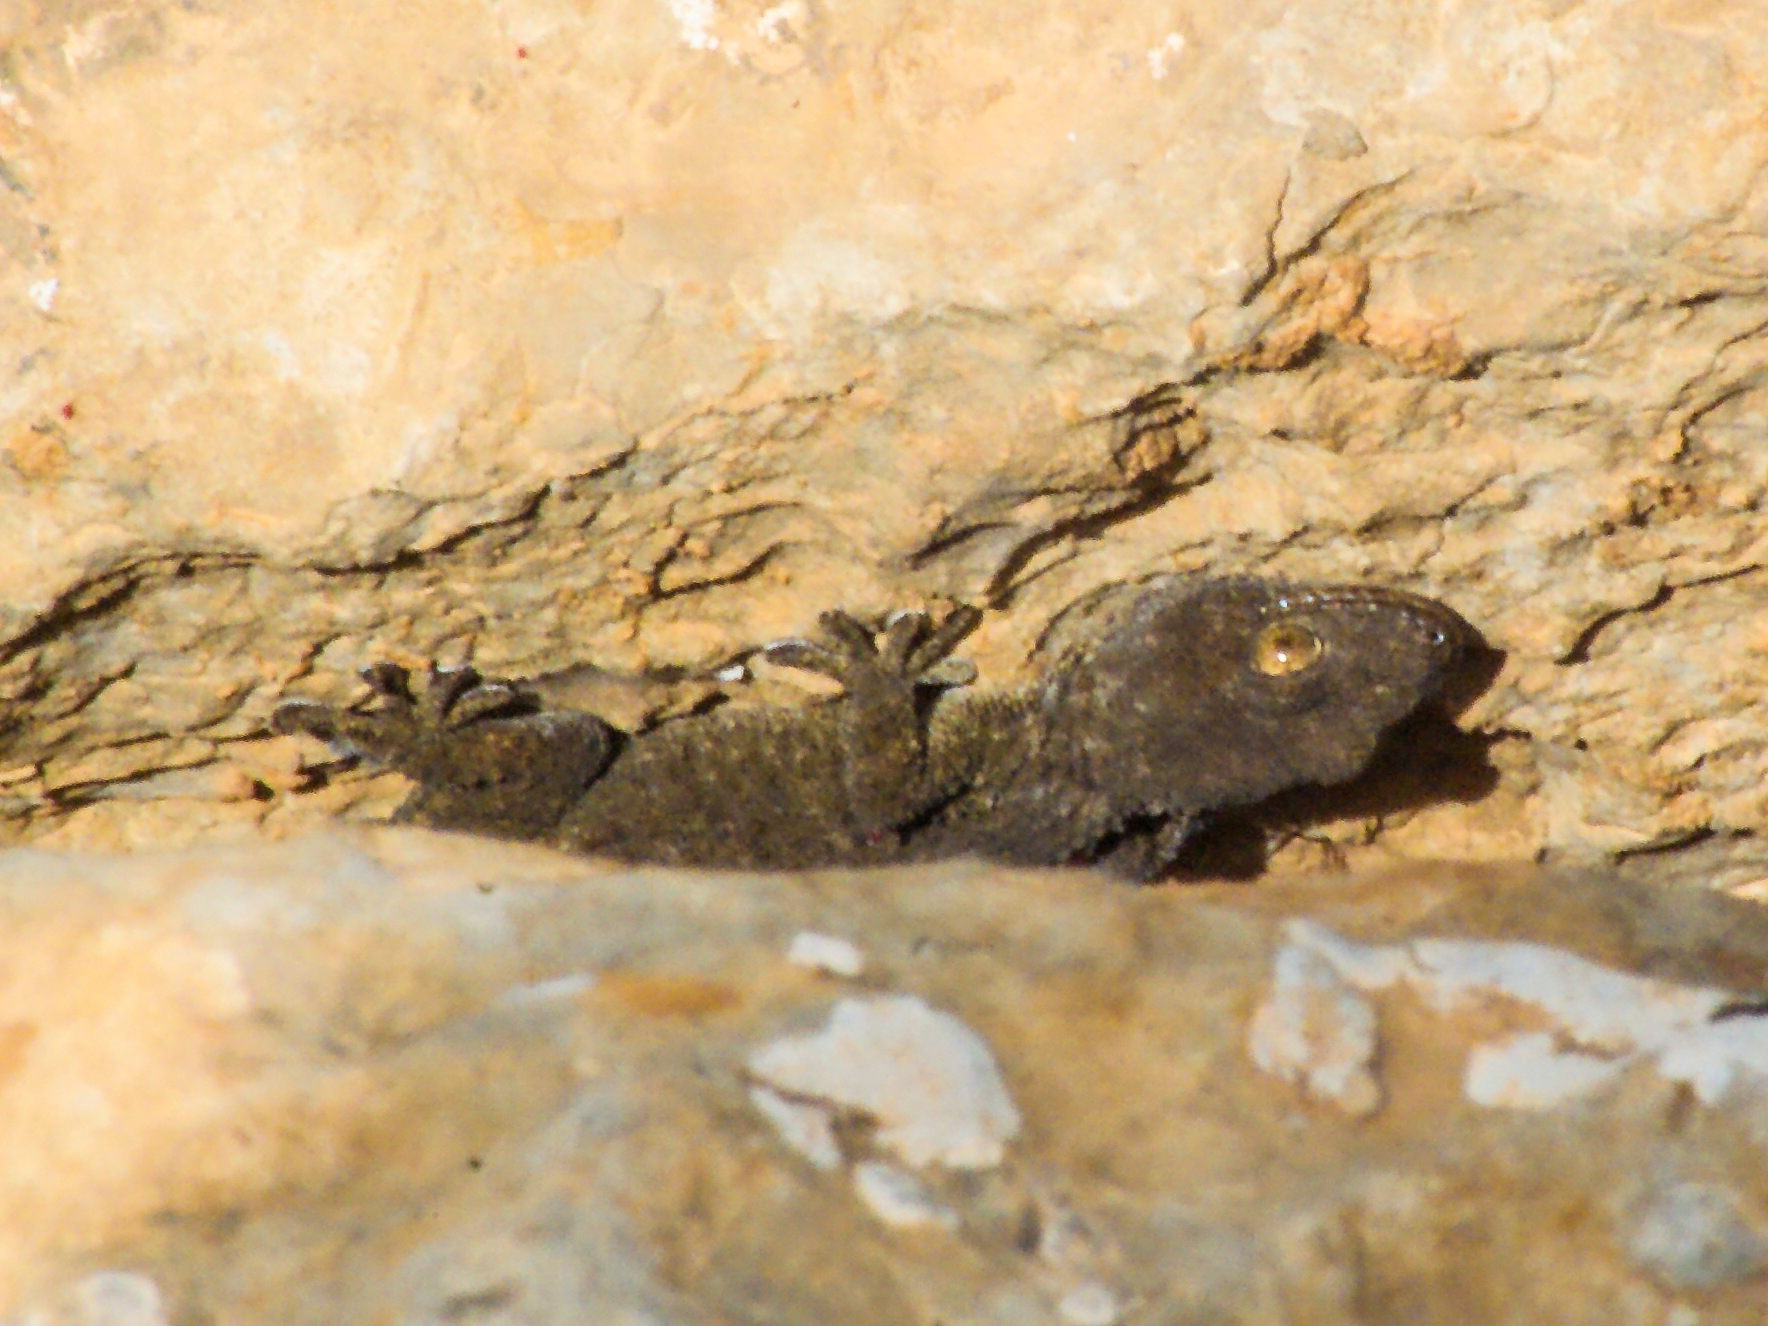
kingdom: Animalia
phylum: Chordata
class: Squamata
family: Phyllodactylidae
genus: Tarentola
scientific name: Tarentola mauritanica
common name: Moorish gecko
